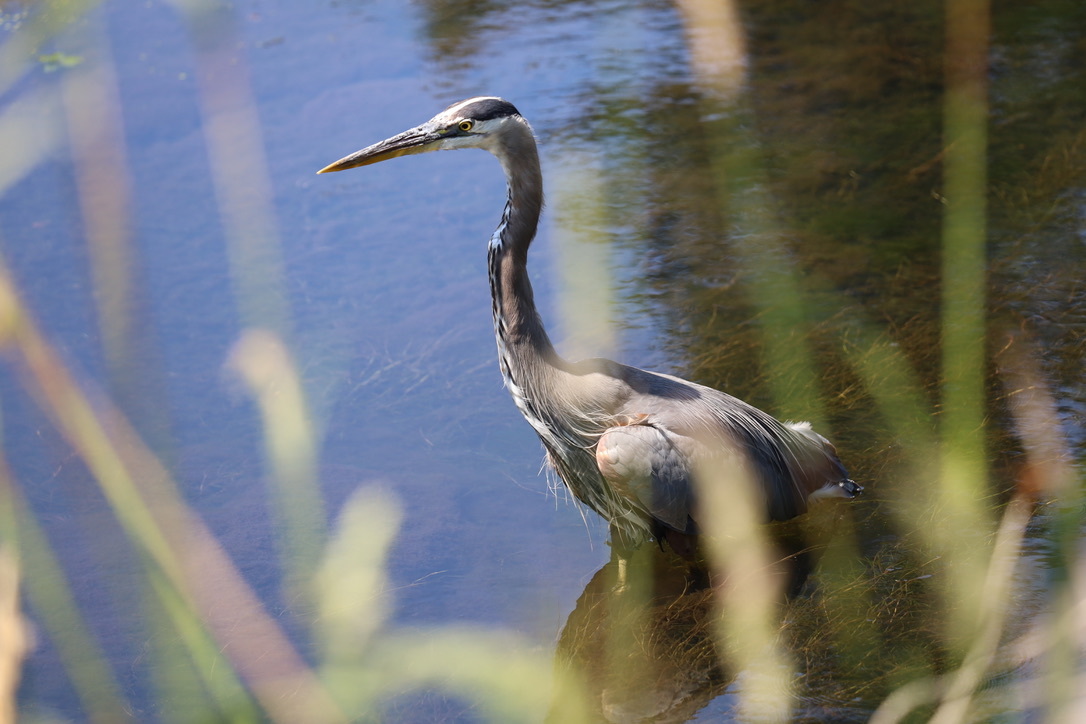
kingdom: Animalia
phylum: Chordata
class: Aves
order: Pelecaniformes
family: Ardeidae
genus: Ardea
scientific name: Ardea herodias
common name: Great blue heron
